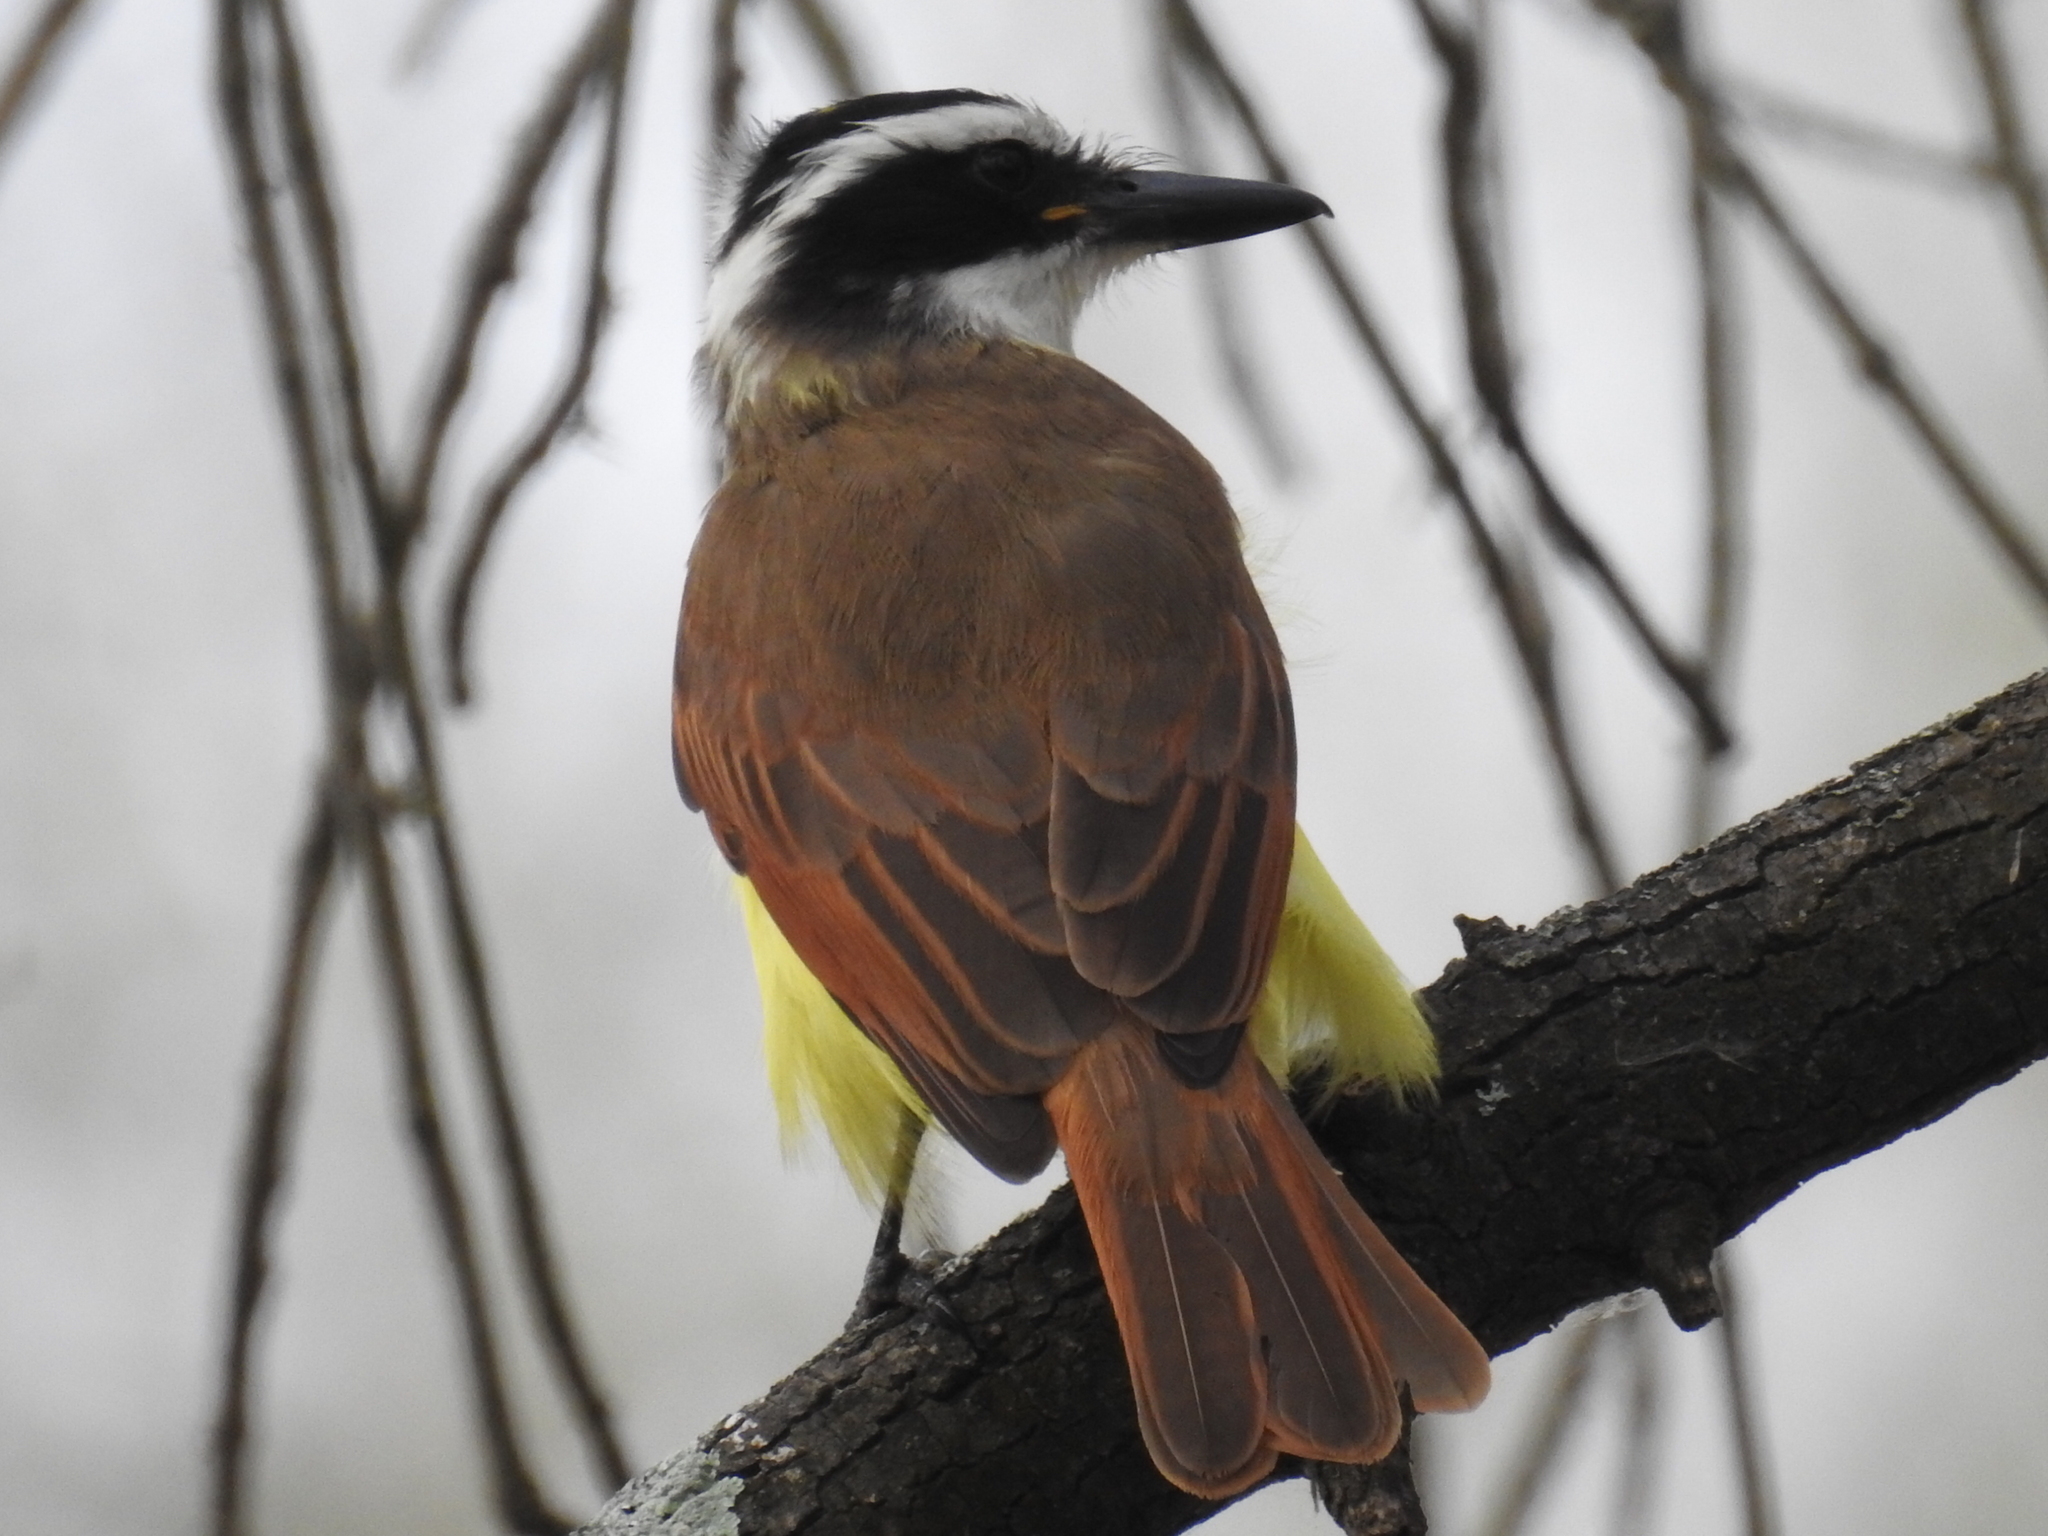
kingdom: Animalia
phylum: Chordata
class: Aves
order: Passeriformes
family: Tyrannidae
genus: Pitangus
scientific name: Pitangus sulphuratus
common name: Great kiskadee
